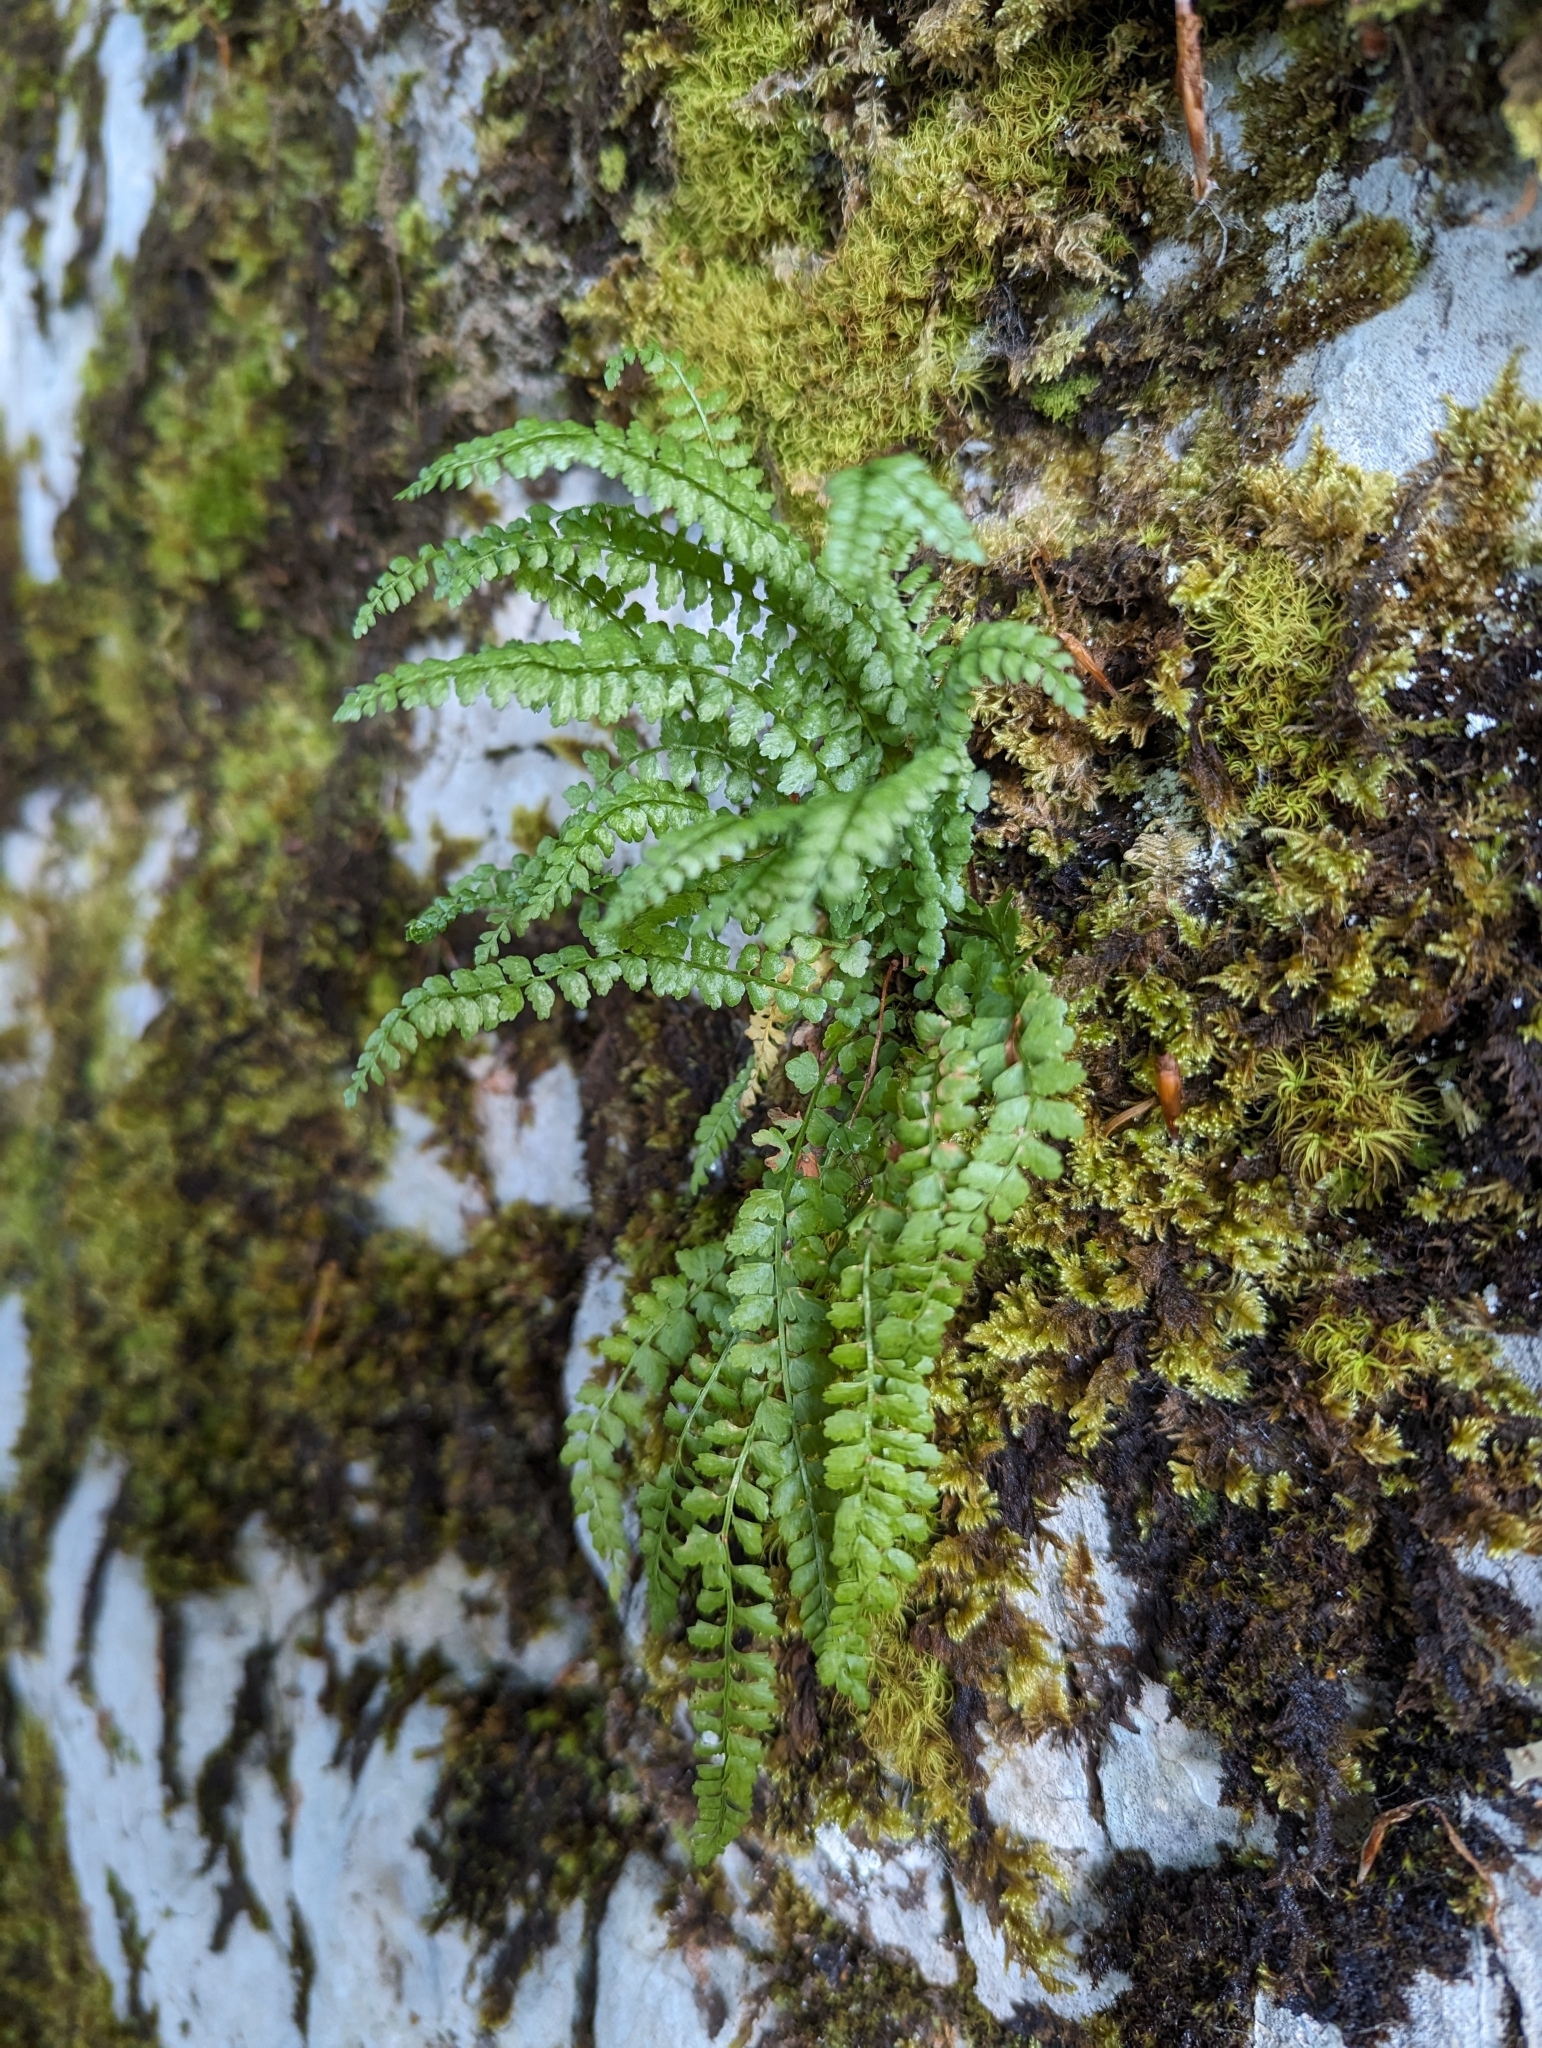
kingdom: Plantae
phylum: Tracheophyta
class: Polypodiopsida
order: Polypodiales
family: Aspleniaceae
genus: Asplenium
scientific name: Asplenium viride
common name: Green spleenwort
